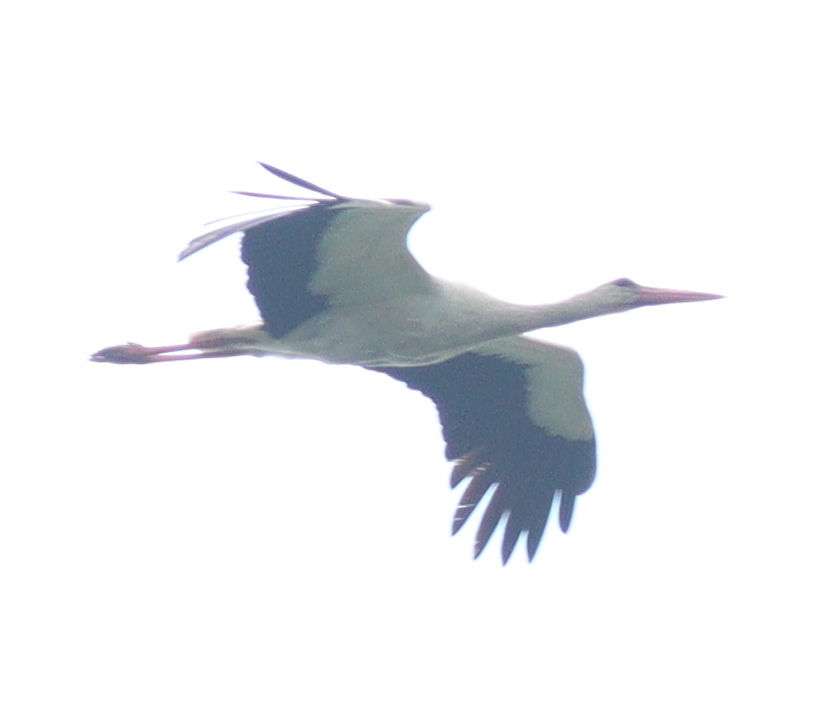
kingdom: Animalia
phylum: Chordata
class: Aves
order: Ciconiiformes
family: Ciconiidae
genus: Ciconia
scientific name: Ciconia ciconia
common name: White stork
